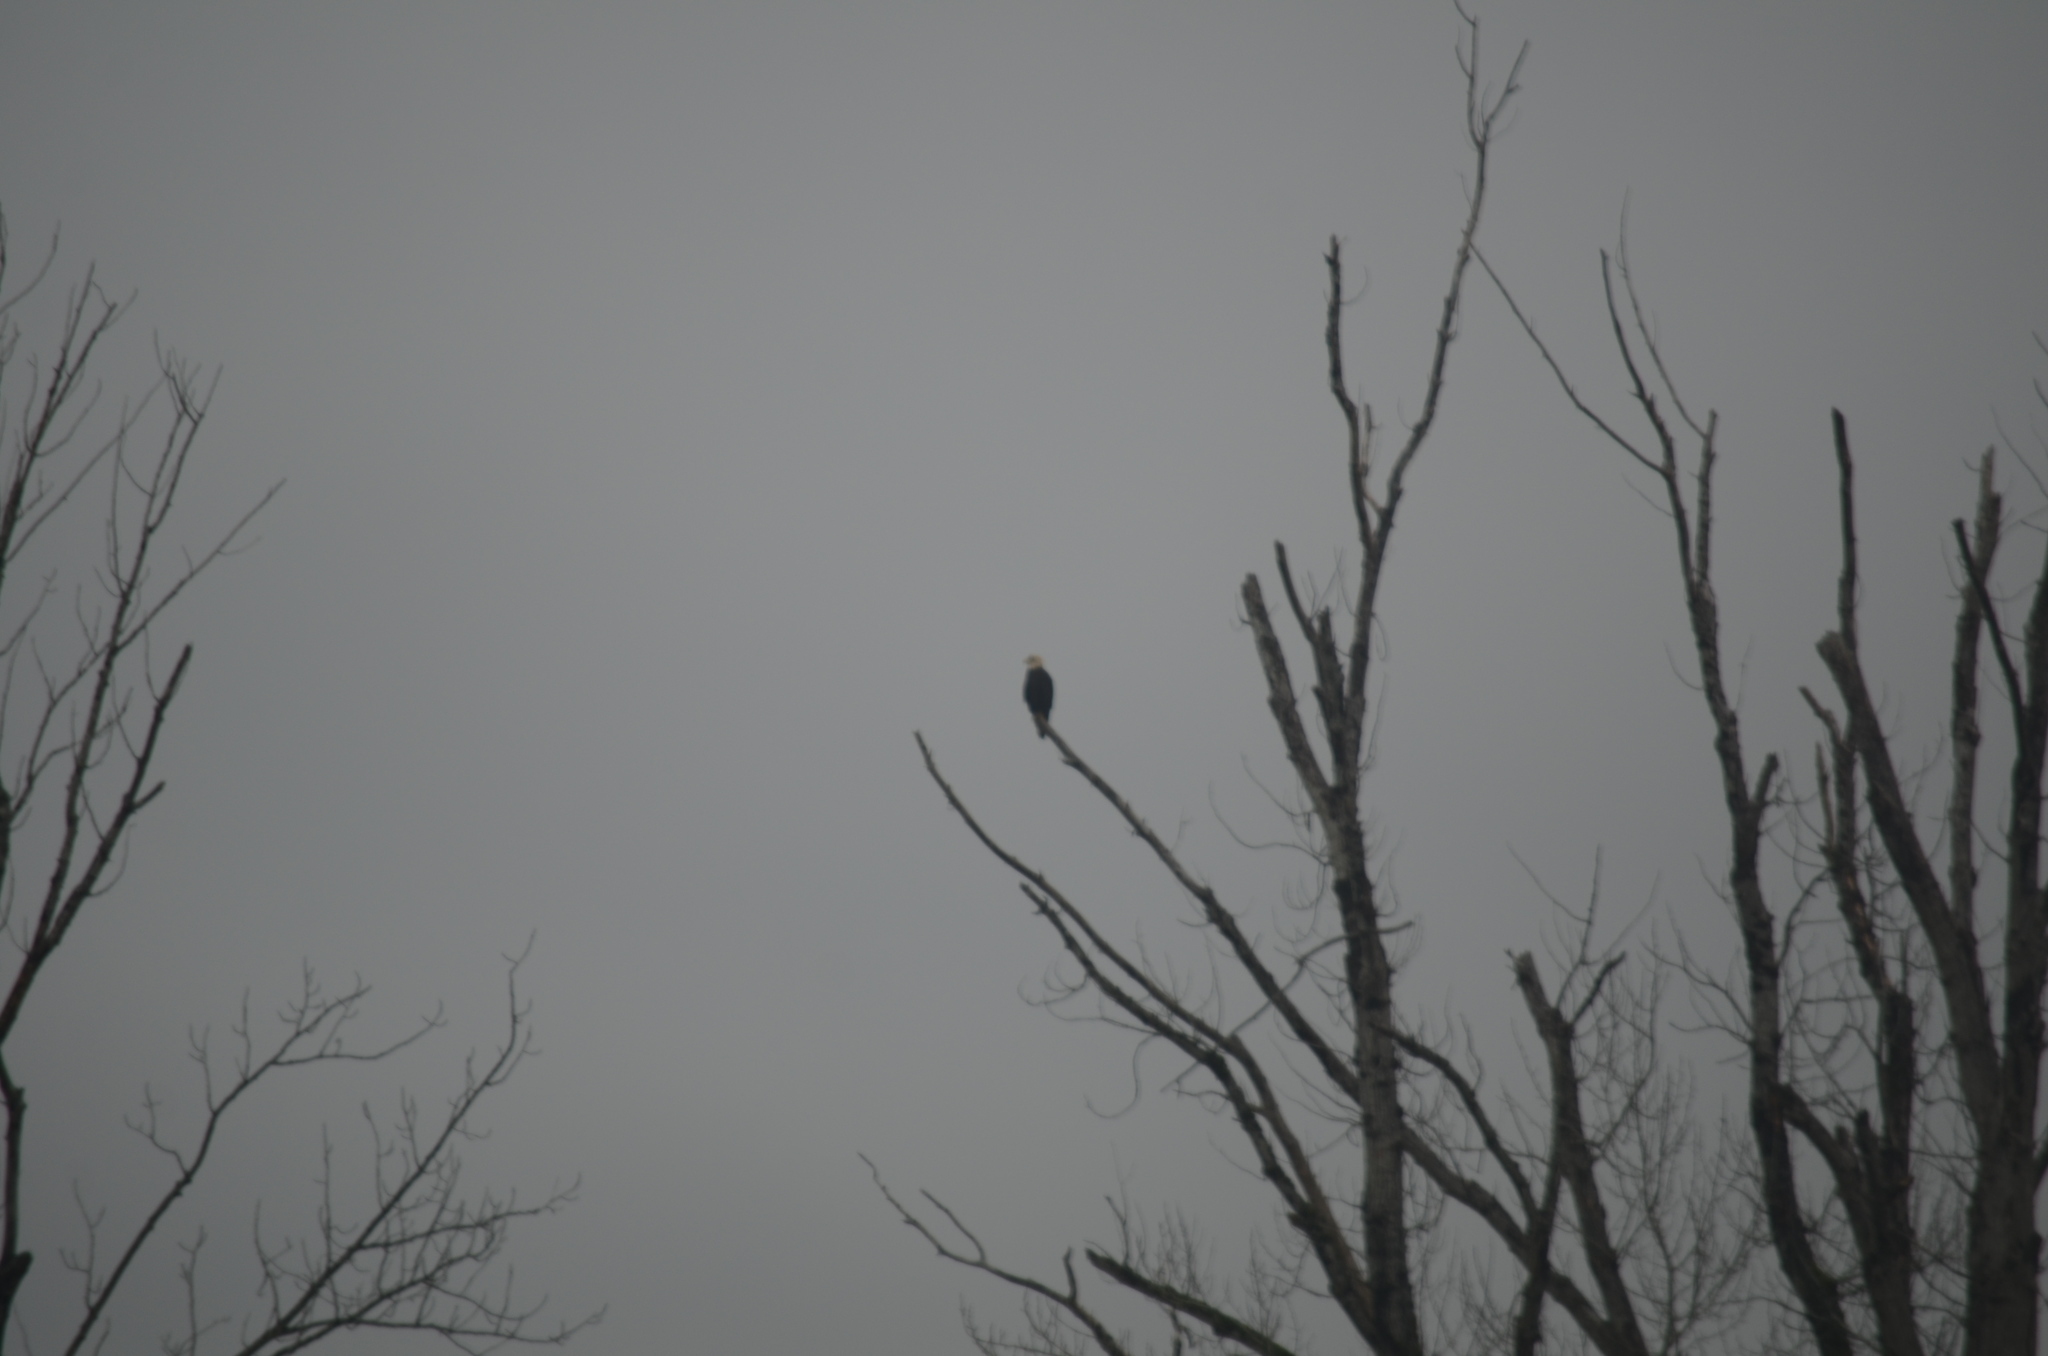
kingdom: Animalia
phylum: Chordata
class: Aves
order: Accipitriformes
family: Accipitridae
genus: Haliaeetus
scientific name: Haliaeetus leucocephalus
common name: Bald eagle
